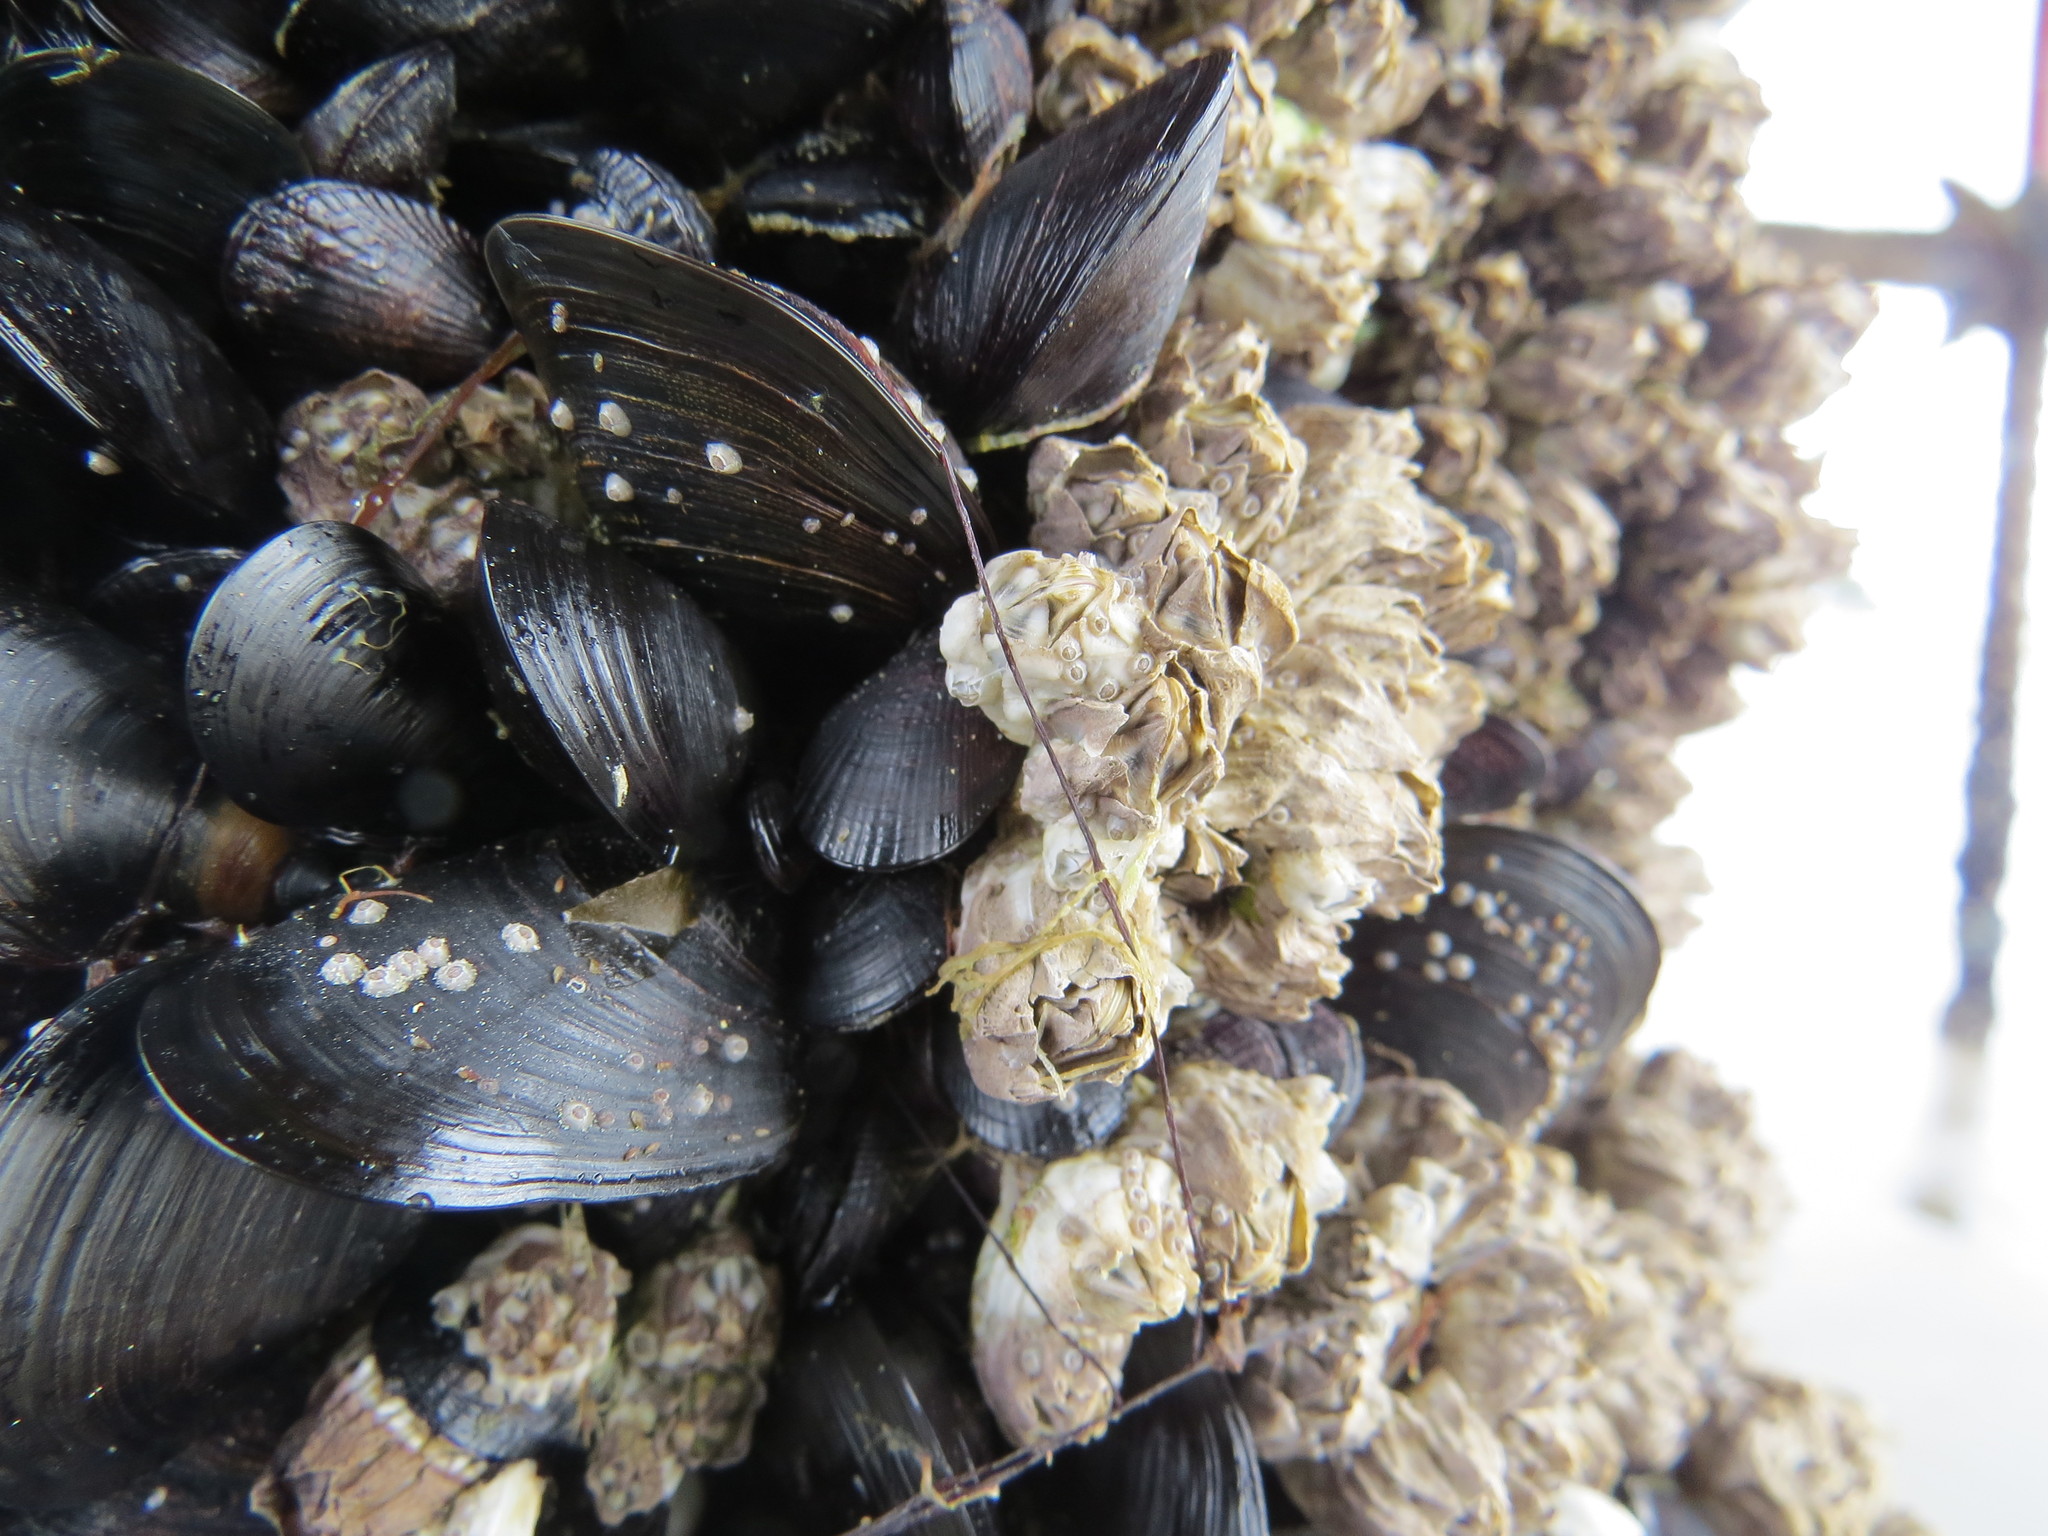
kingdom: Animalia
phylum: Arthropoda
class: Maxillopoda
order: Sessilia
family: Balanidae
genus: Balanus
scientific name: Balanus glandula
